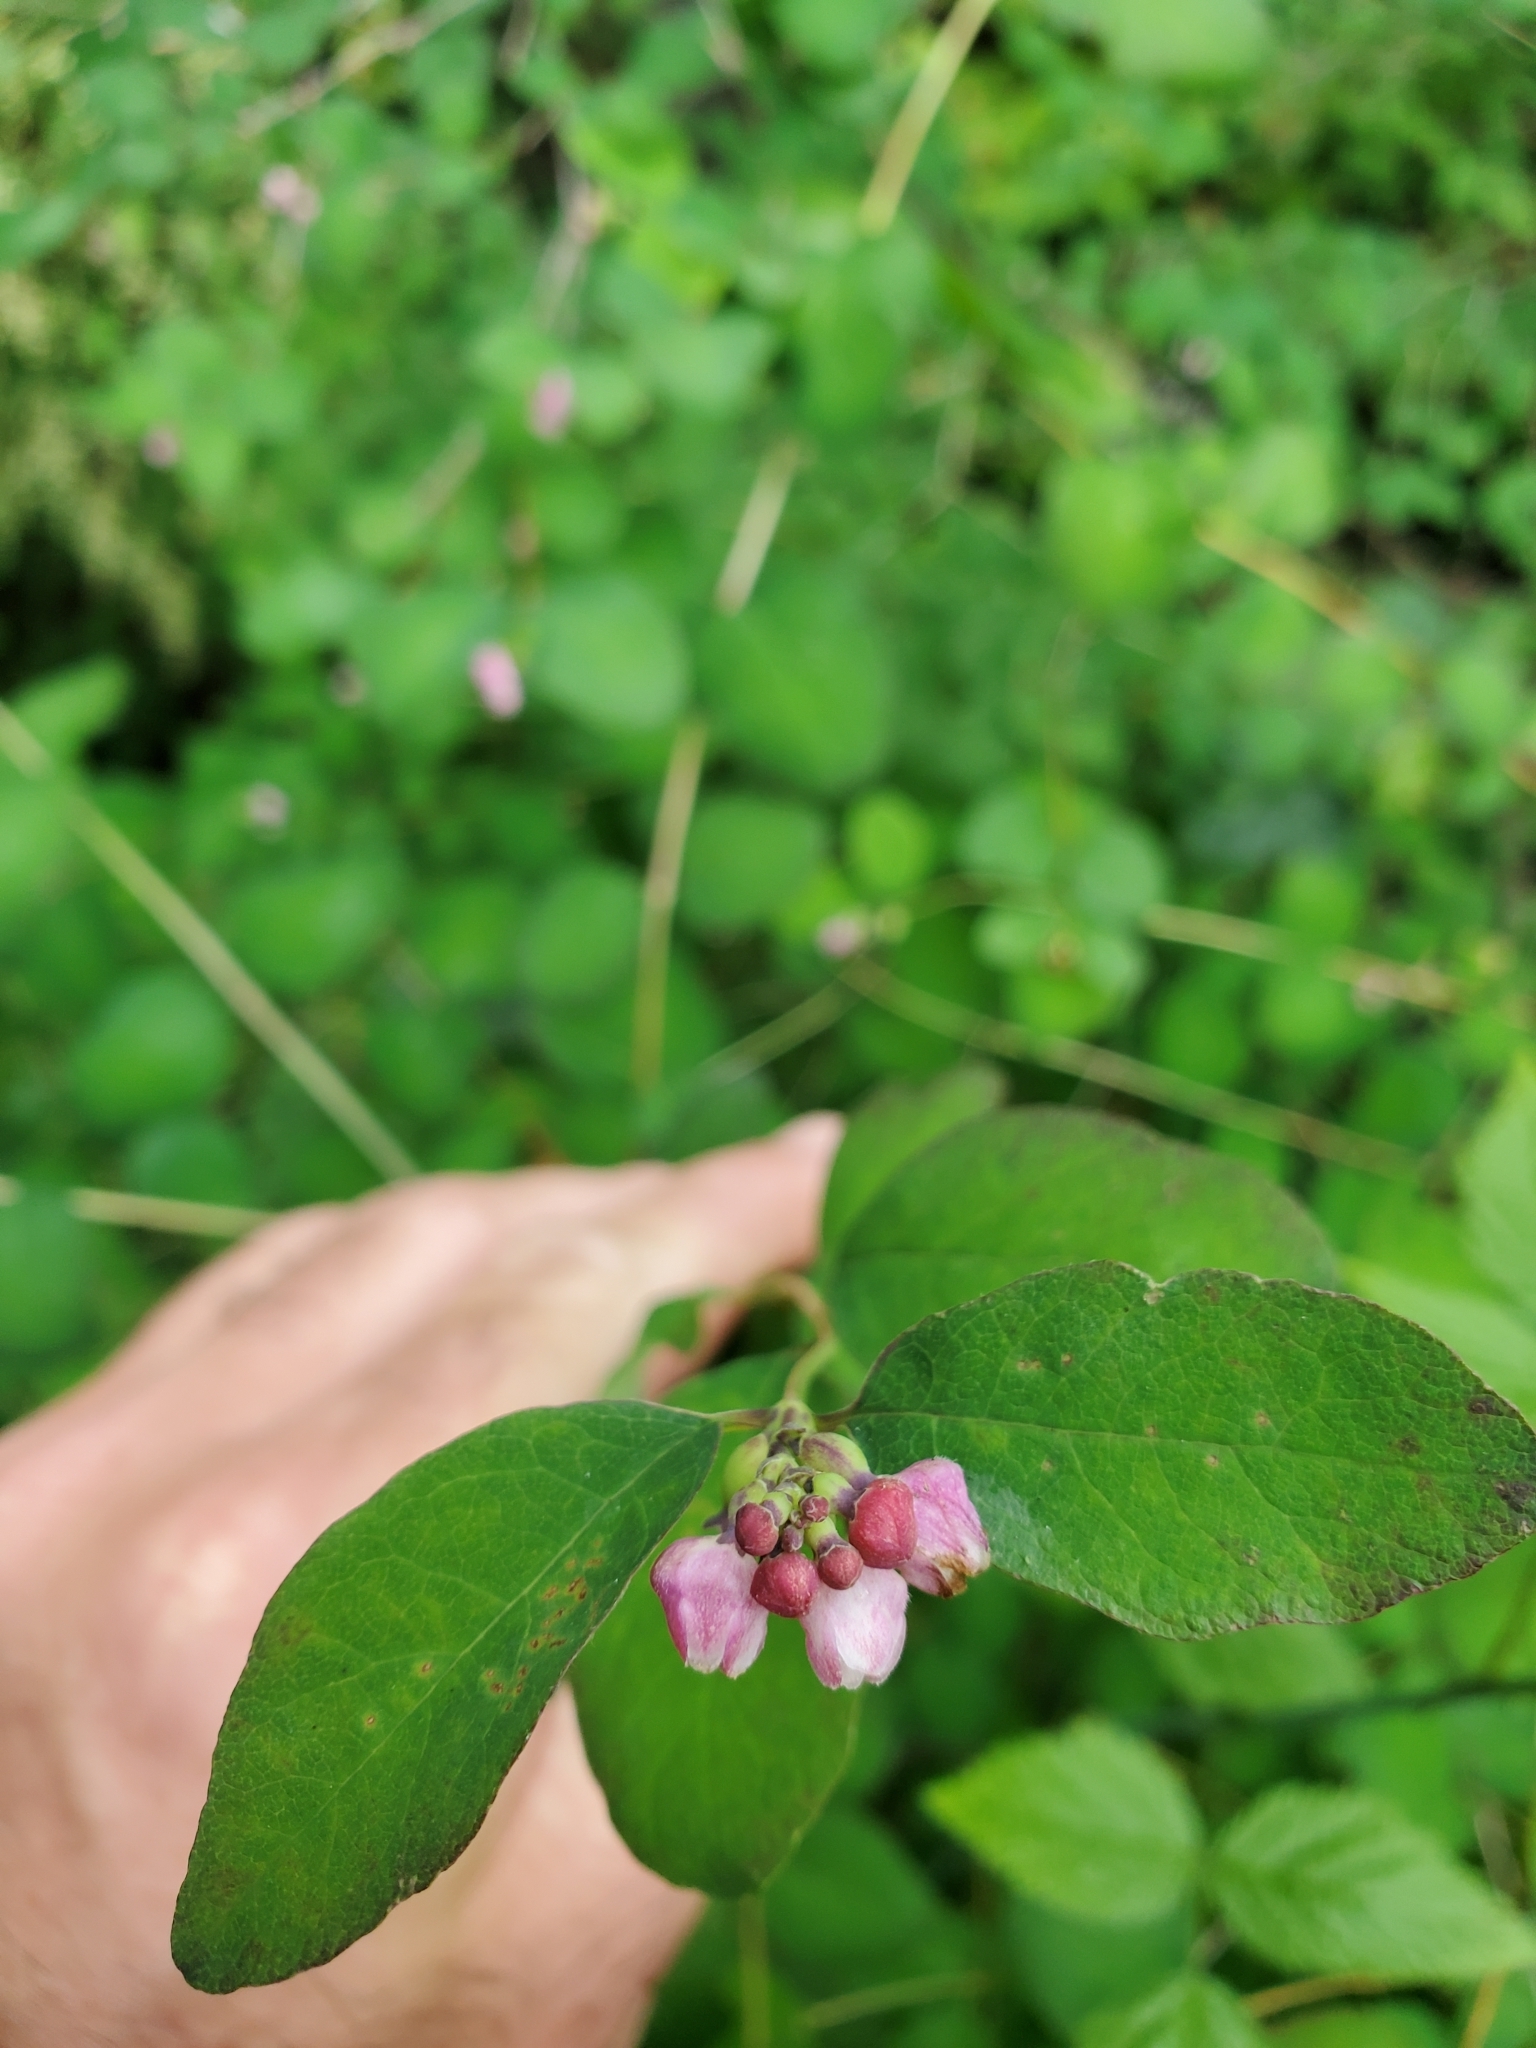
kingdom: Plantae
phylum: Tracheophyta
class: Magnoliopsida
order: Dipsacales
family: Caprifoliaceae
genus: Symphoricarpos
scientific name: Symphoricarpos albus
